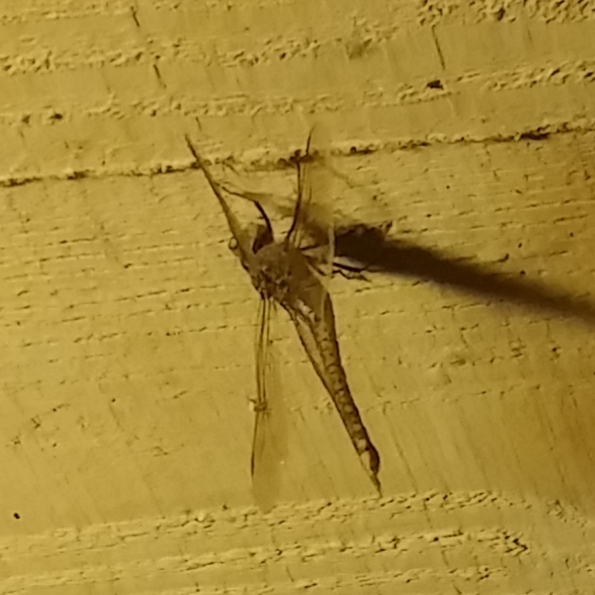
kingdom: Animalia
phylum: Arthropoda
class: Insecta
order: Odonata
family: Aeshnidae
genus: Anax
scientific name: Anax papuensis
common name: Australian emperor
